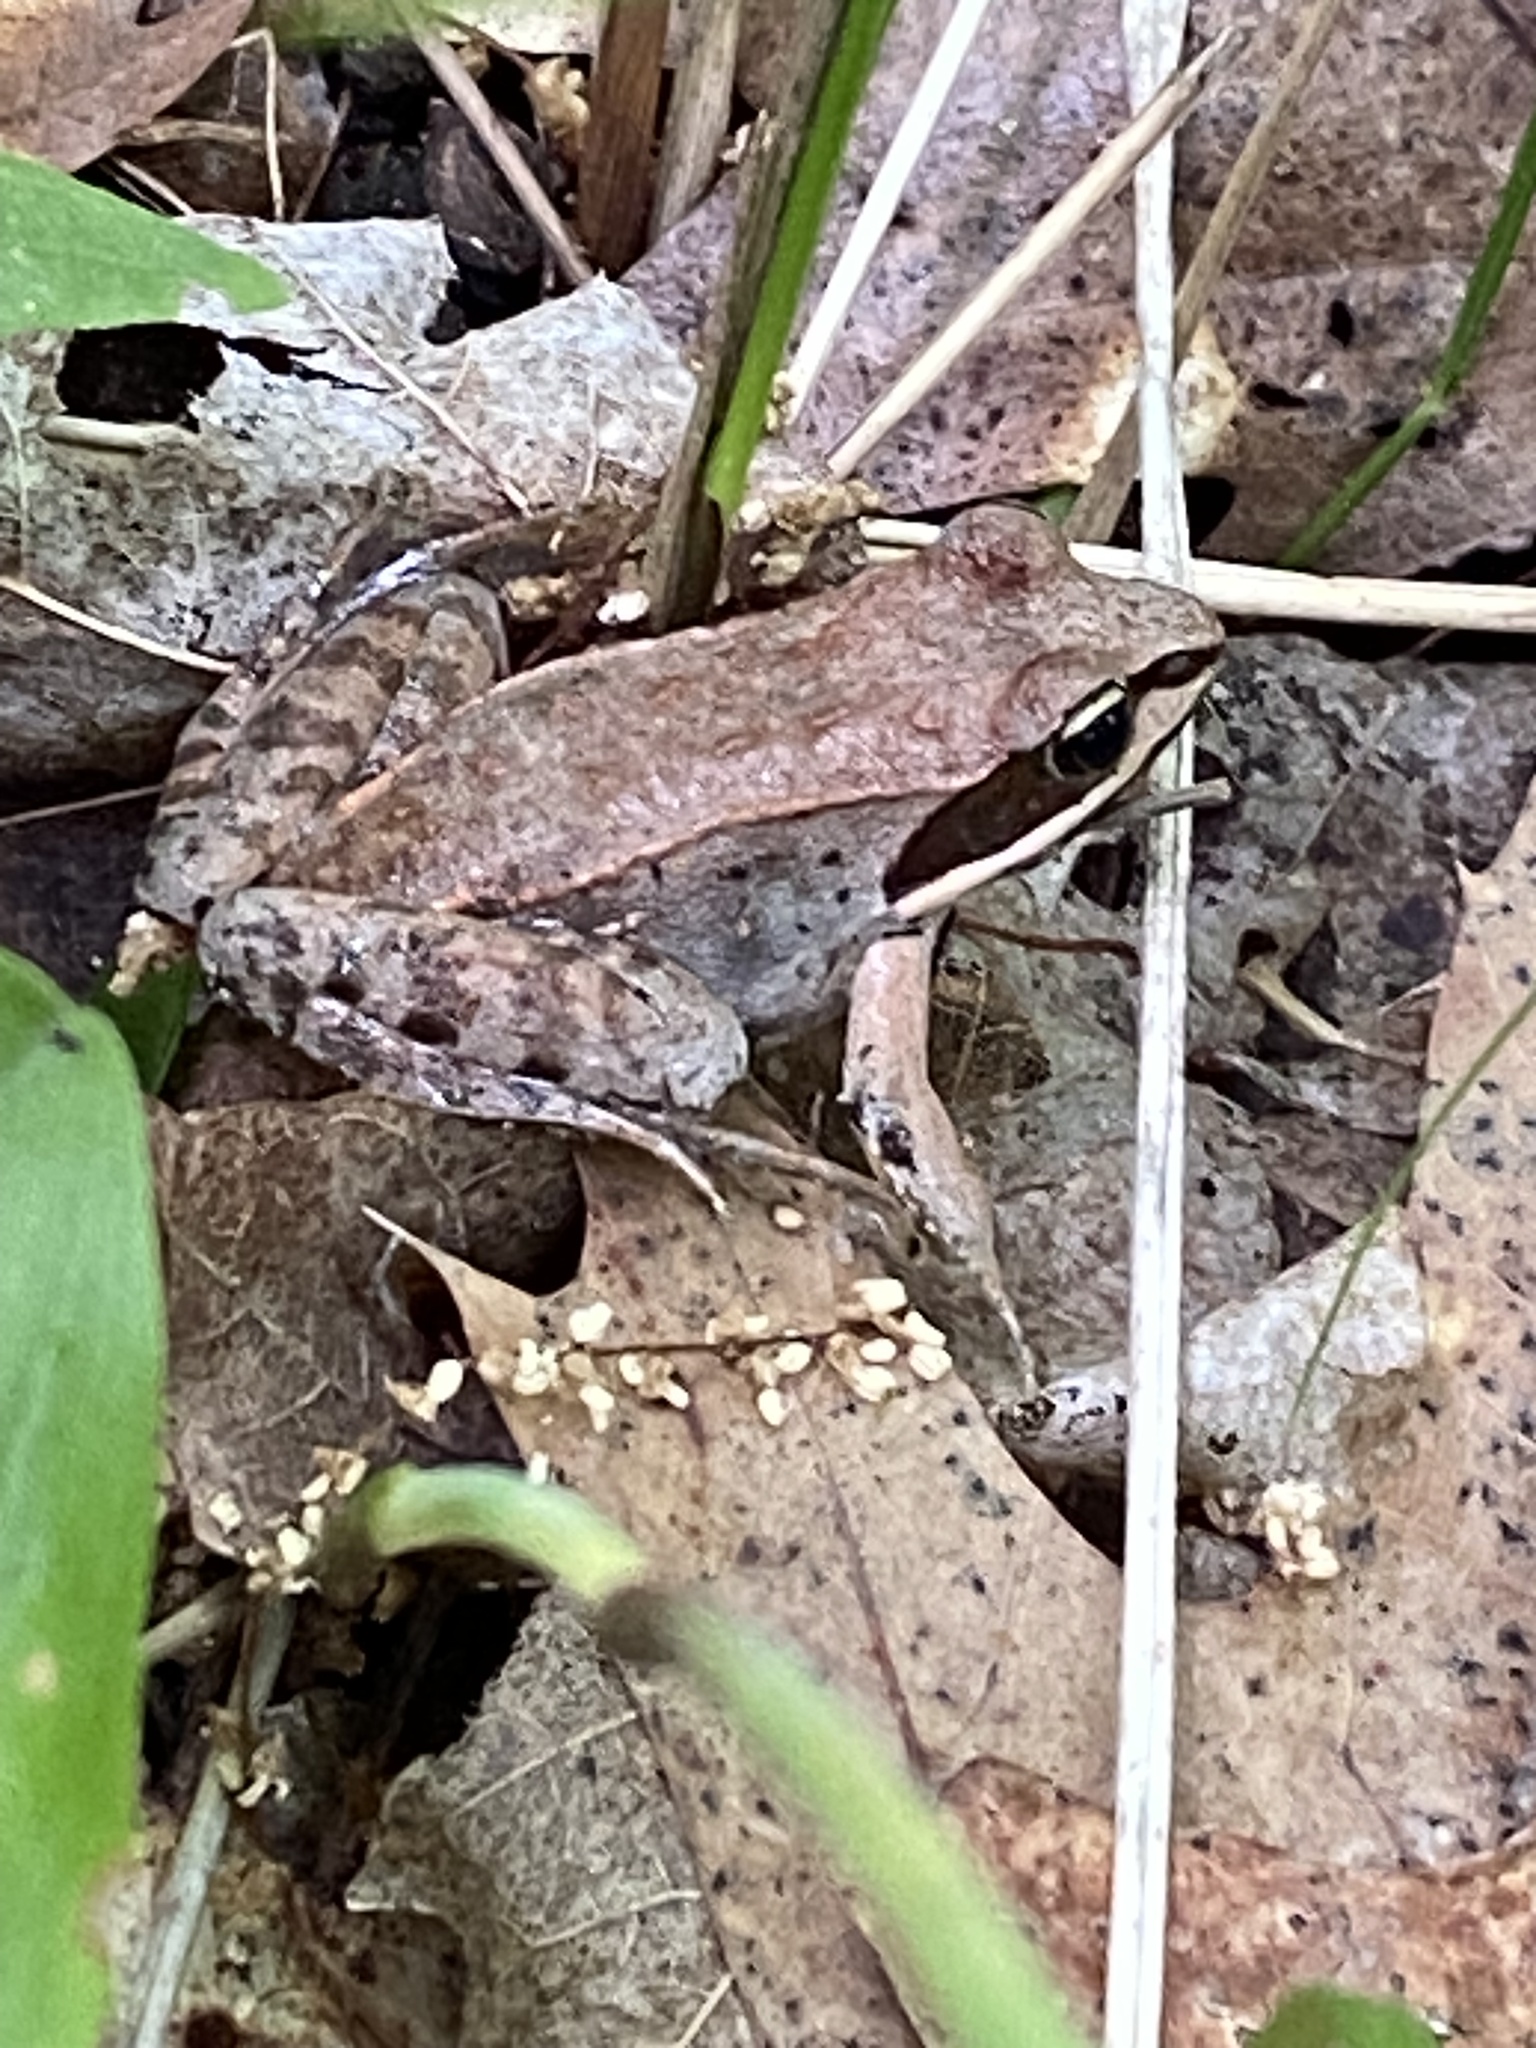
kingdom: Animalia
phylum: Chordata
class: Amphibia
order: Anura
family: Ranidae
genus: Lithobates
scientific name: Lithobates sylvaticus
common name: Wood frog
